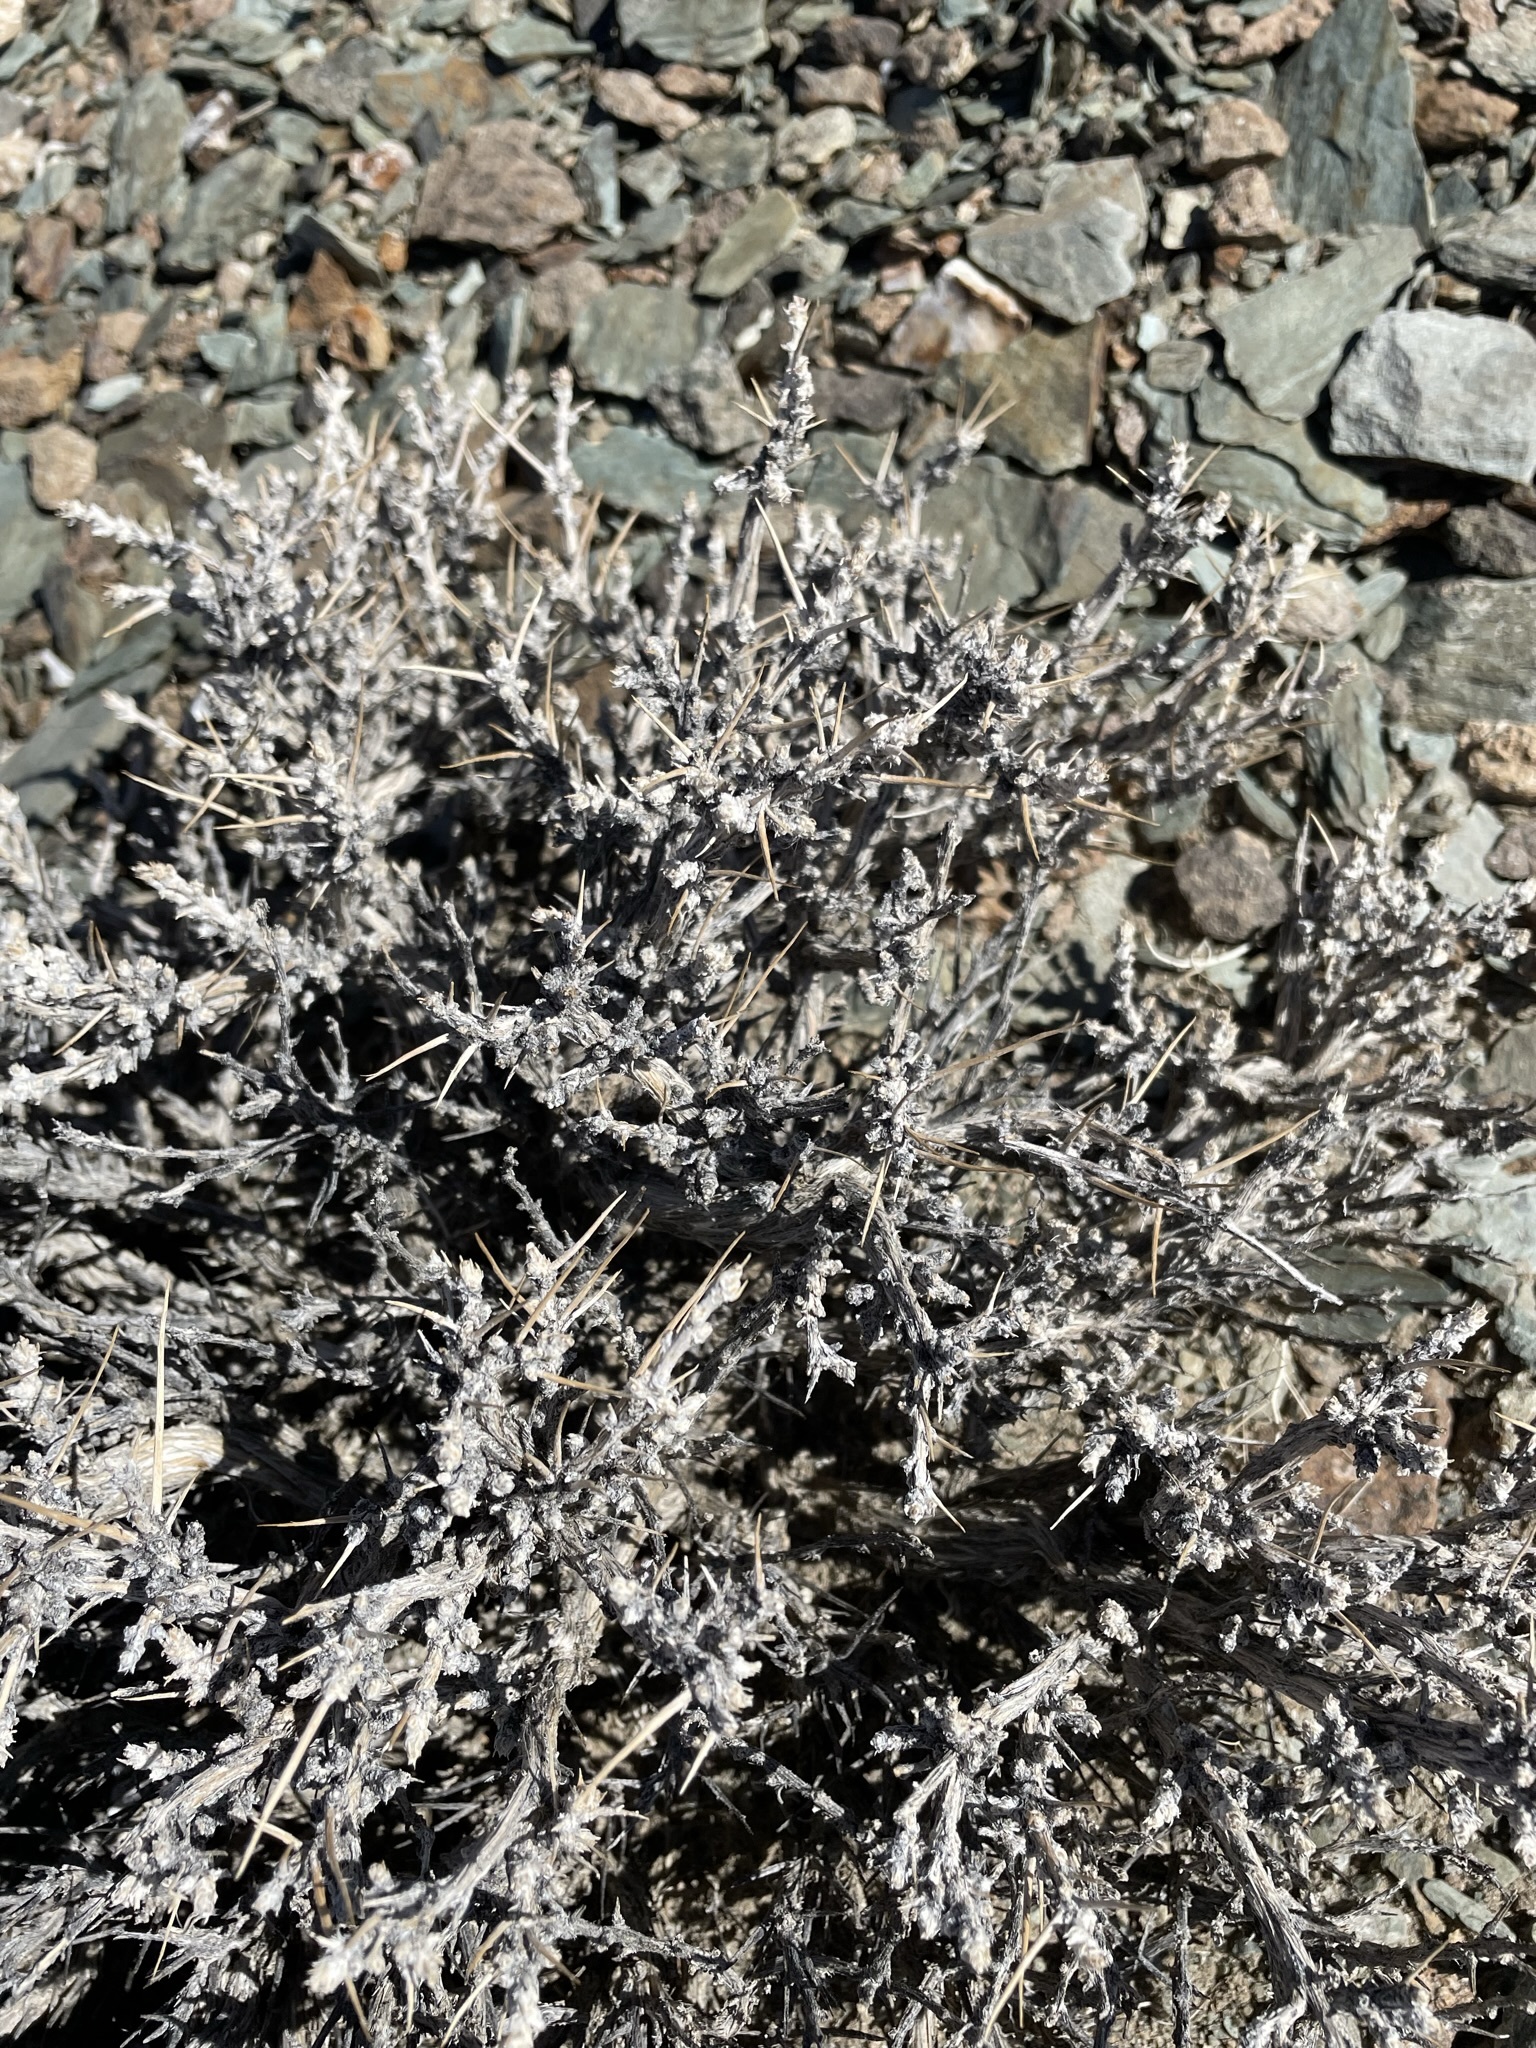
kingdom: Plantae
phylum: Tracheophyta
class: Magnoliopsida
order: Asterales
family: Asteraceae
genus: Artemisia
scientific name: Artemisia spinescens
